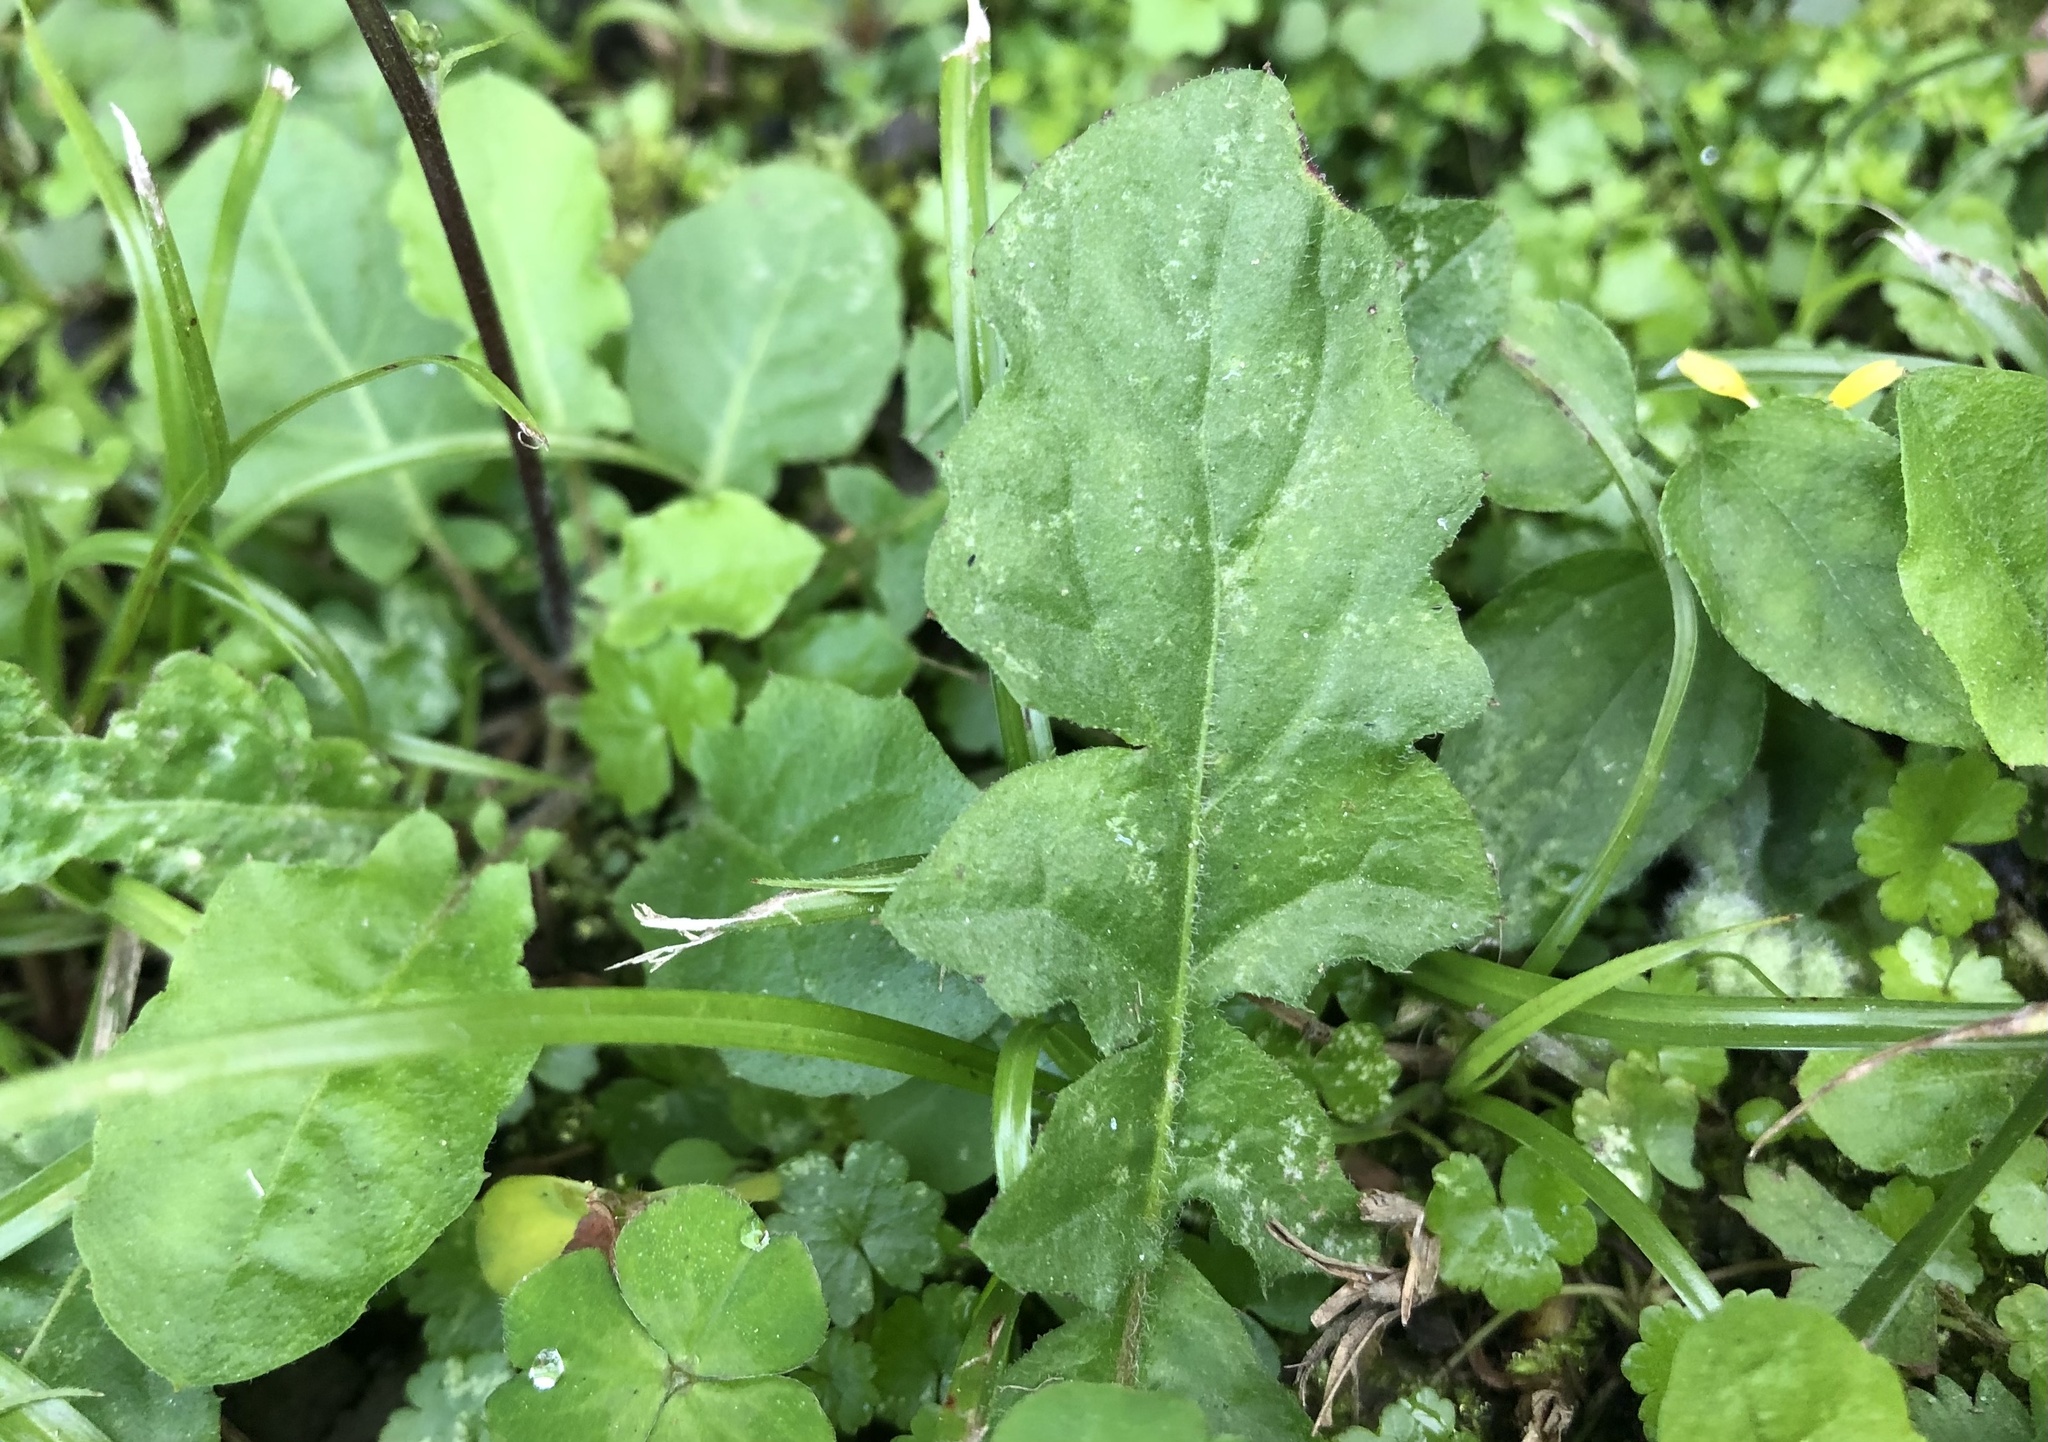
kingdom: Plantae
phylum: Tracheophyta
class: Magnoliopsida
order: Asterales
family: Asteraceae
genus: Youngia
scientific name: Youngia japonica
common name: Oriental false hawksbeard
